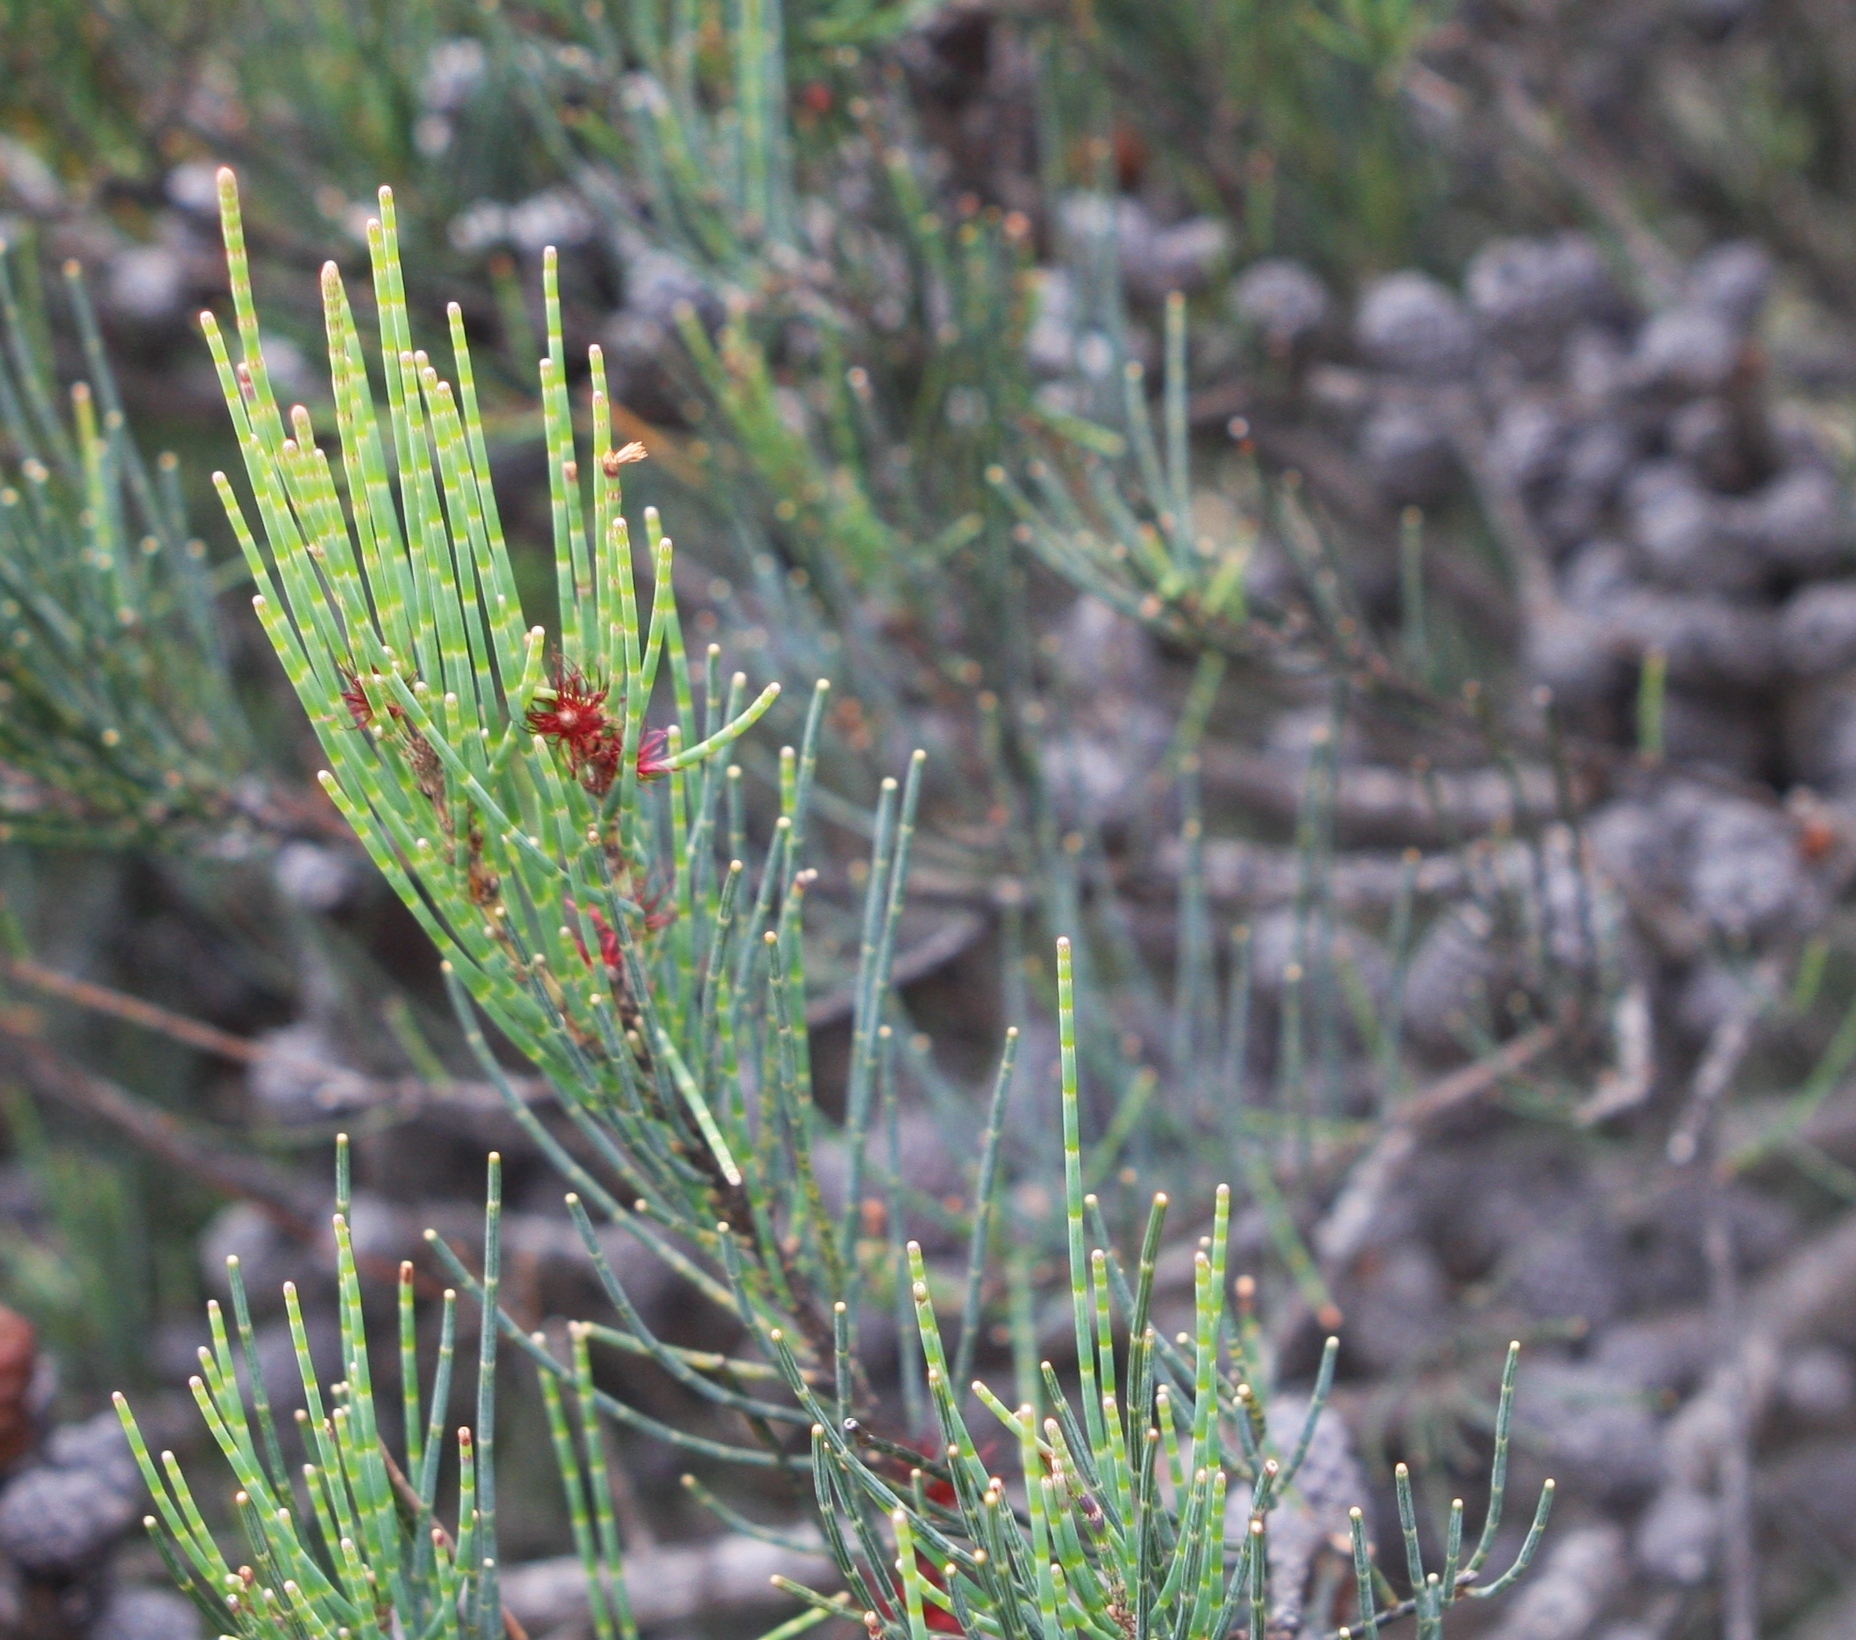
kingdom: Plantae
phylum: Tracheophyta
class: Magnoliopsida
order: Fagales
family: Casuarinaceae
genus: Allocasuarina
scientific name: Allocasuarina monilifera
